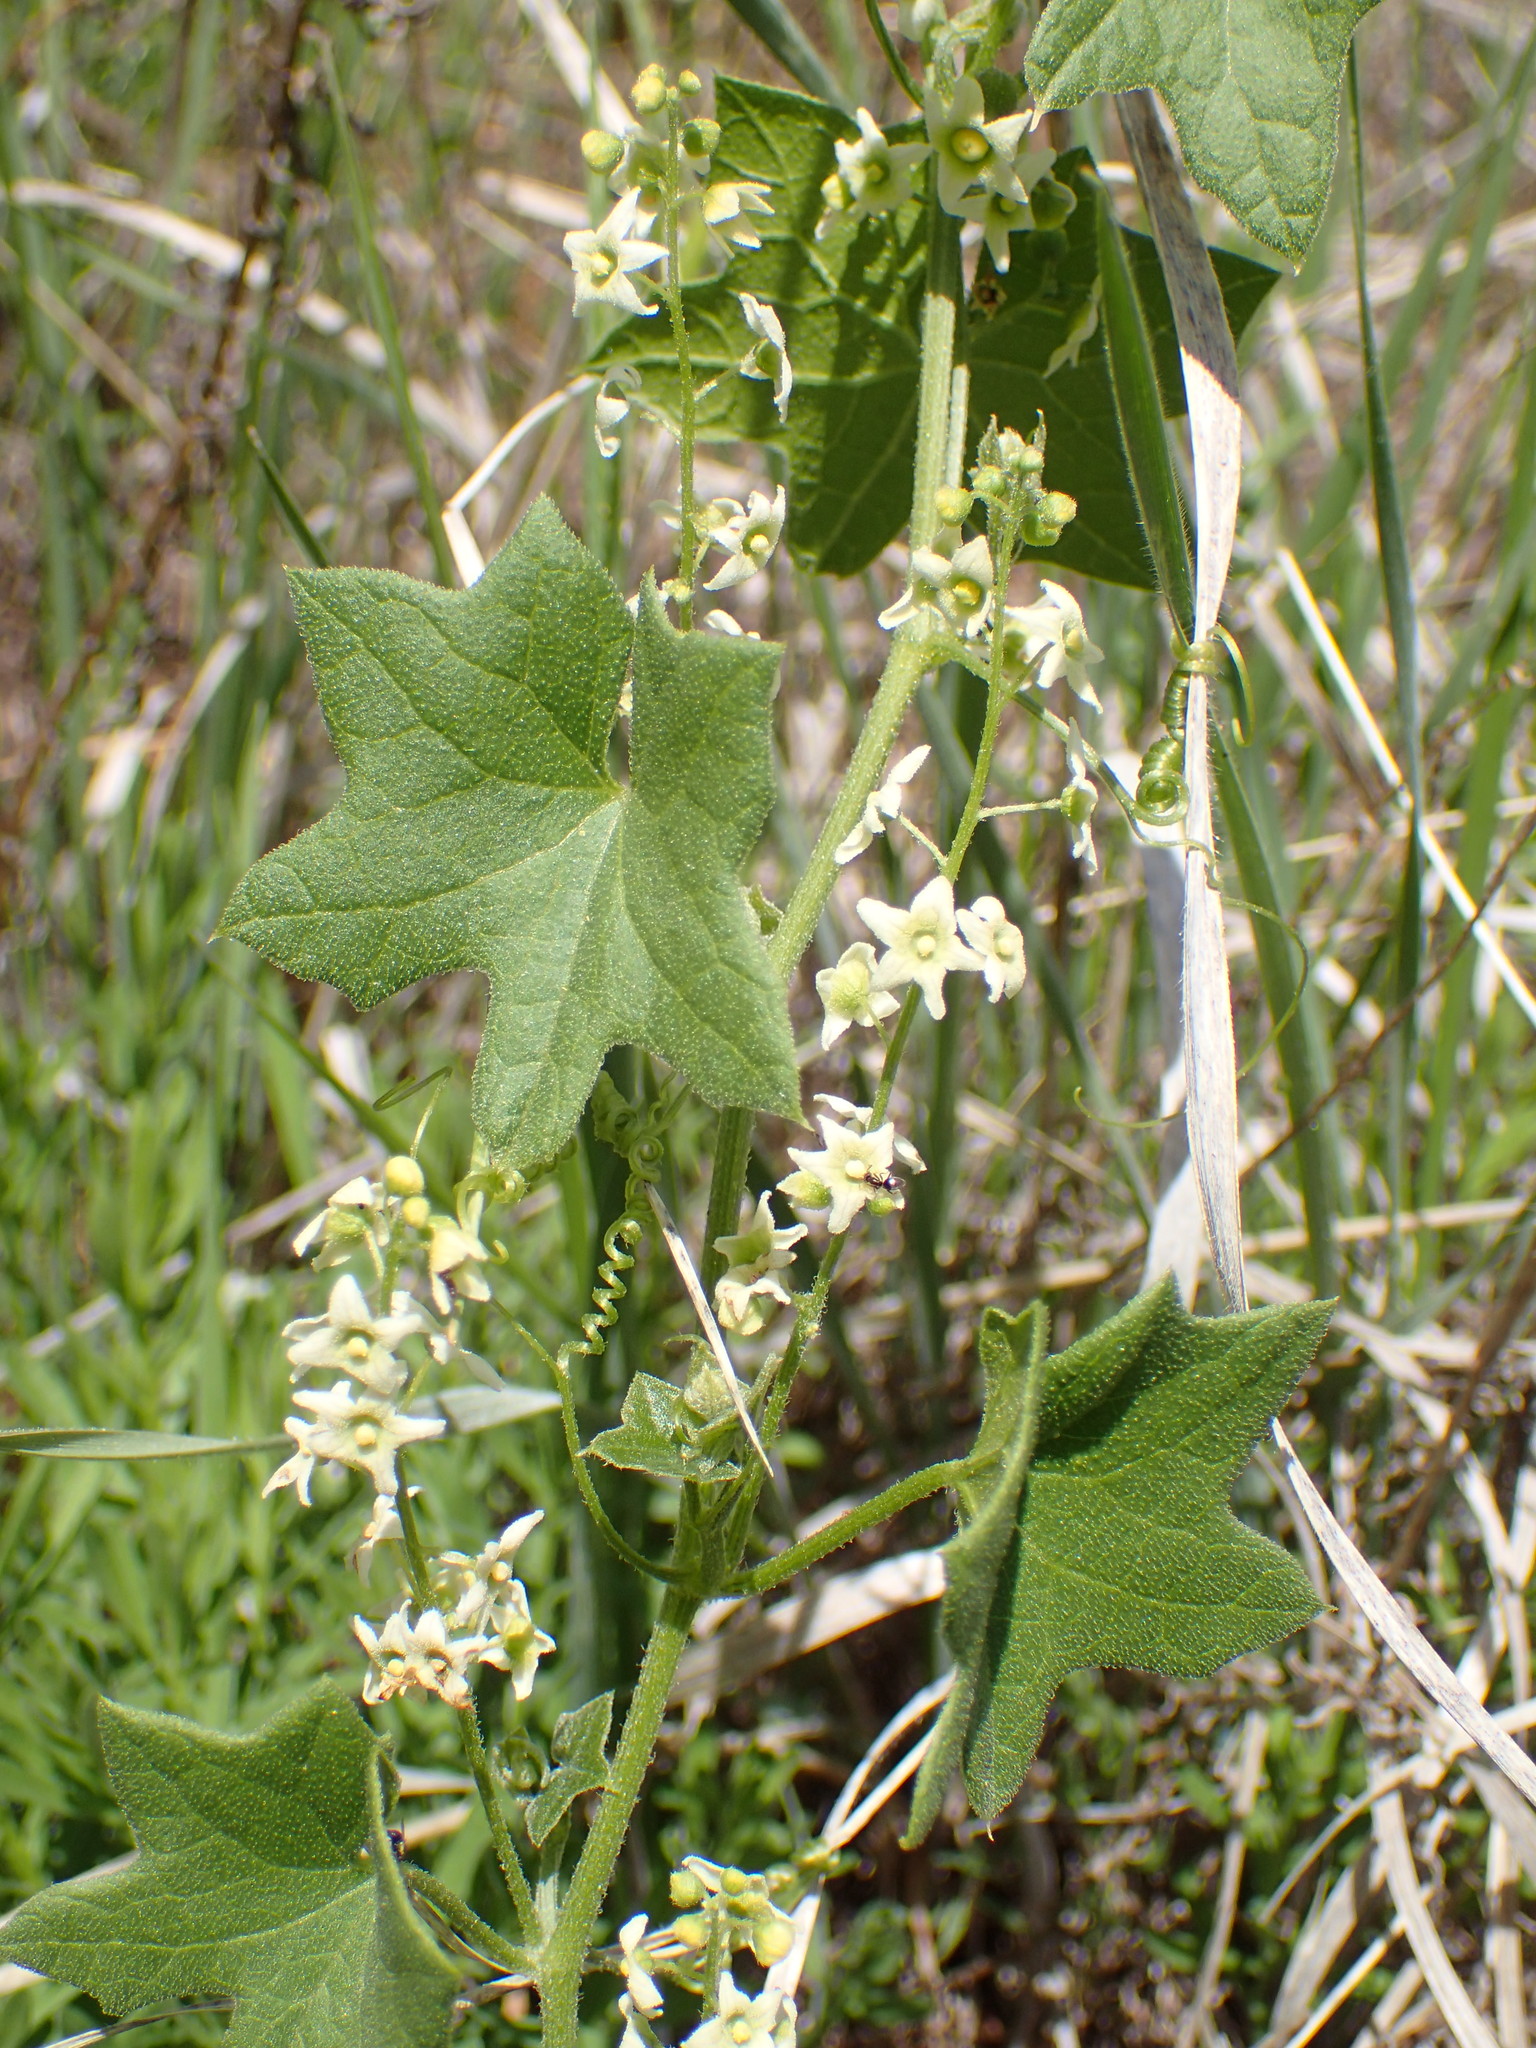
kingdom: Plantae
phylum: Tracheophyta
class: Magnoliopsida
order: Cucurbitales
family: Cucurbitaceae
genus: Marah
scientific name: Marah fabacea
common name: California manroot
